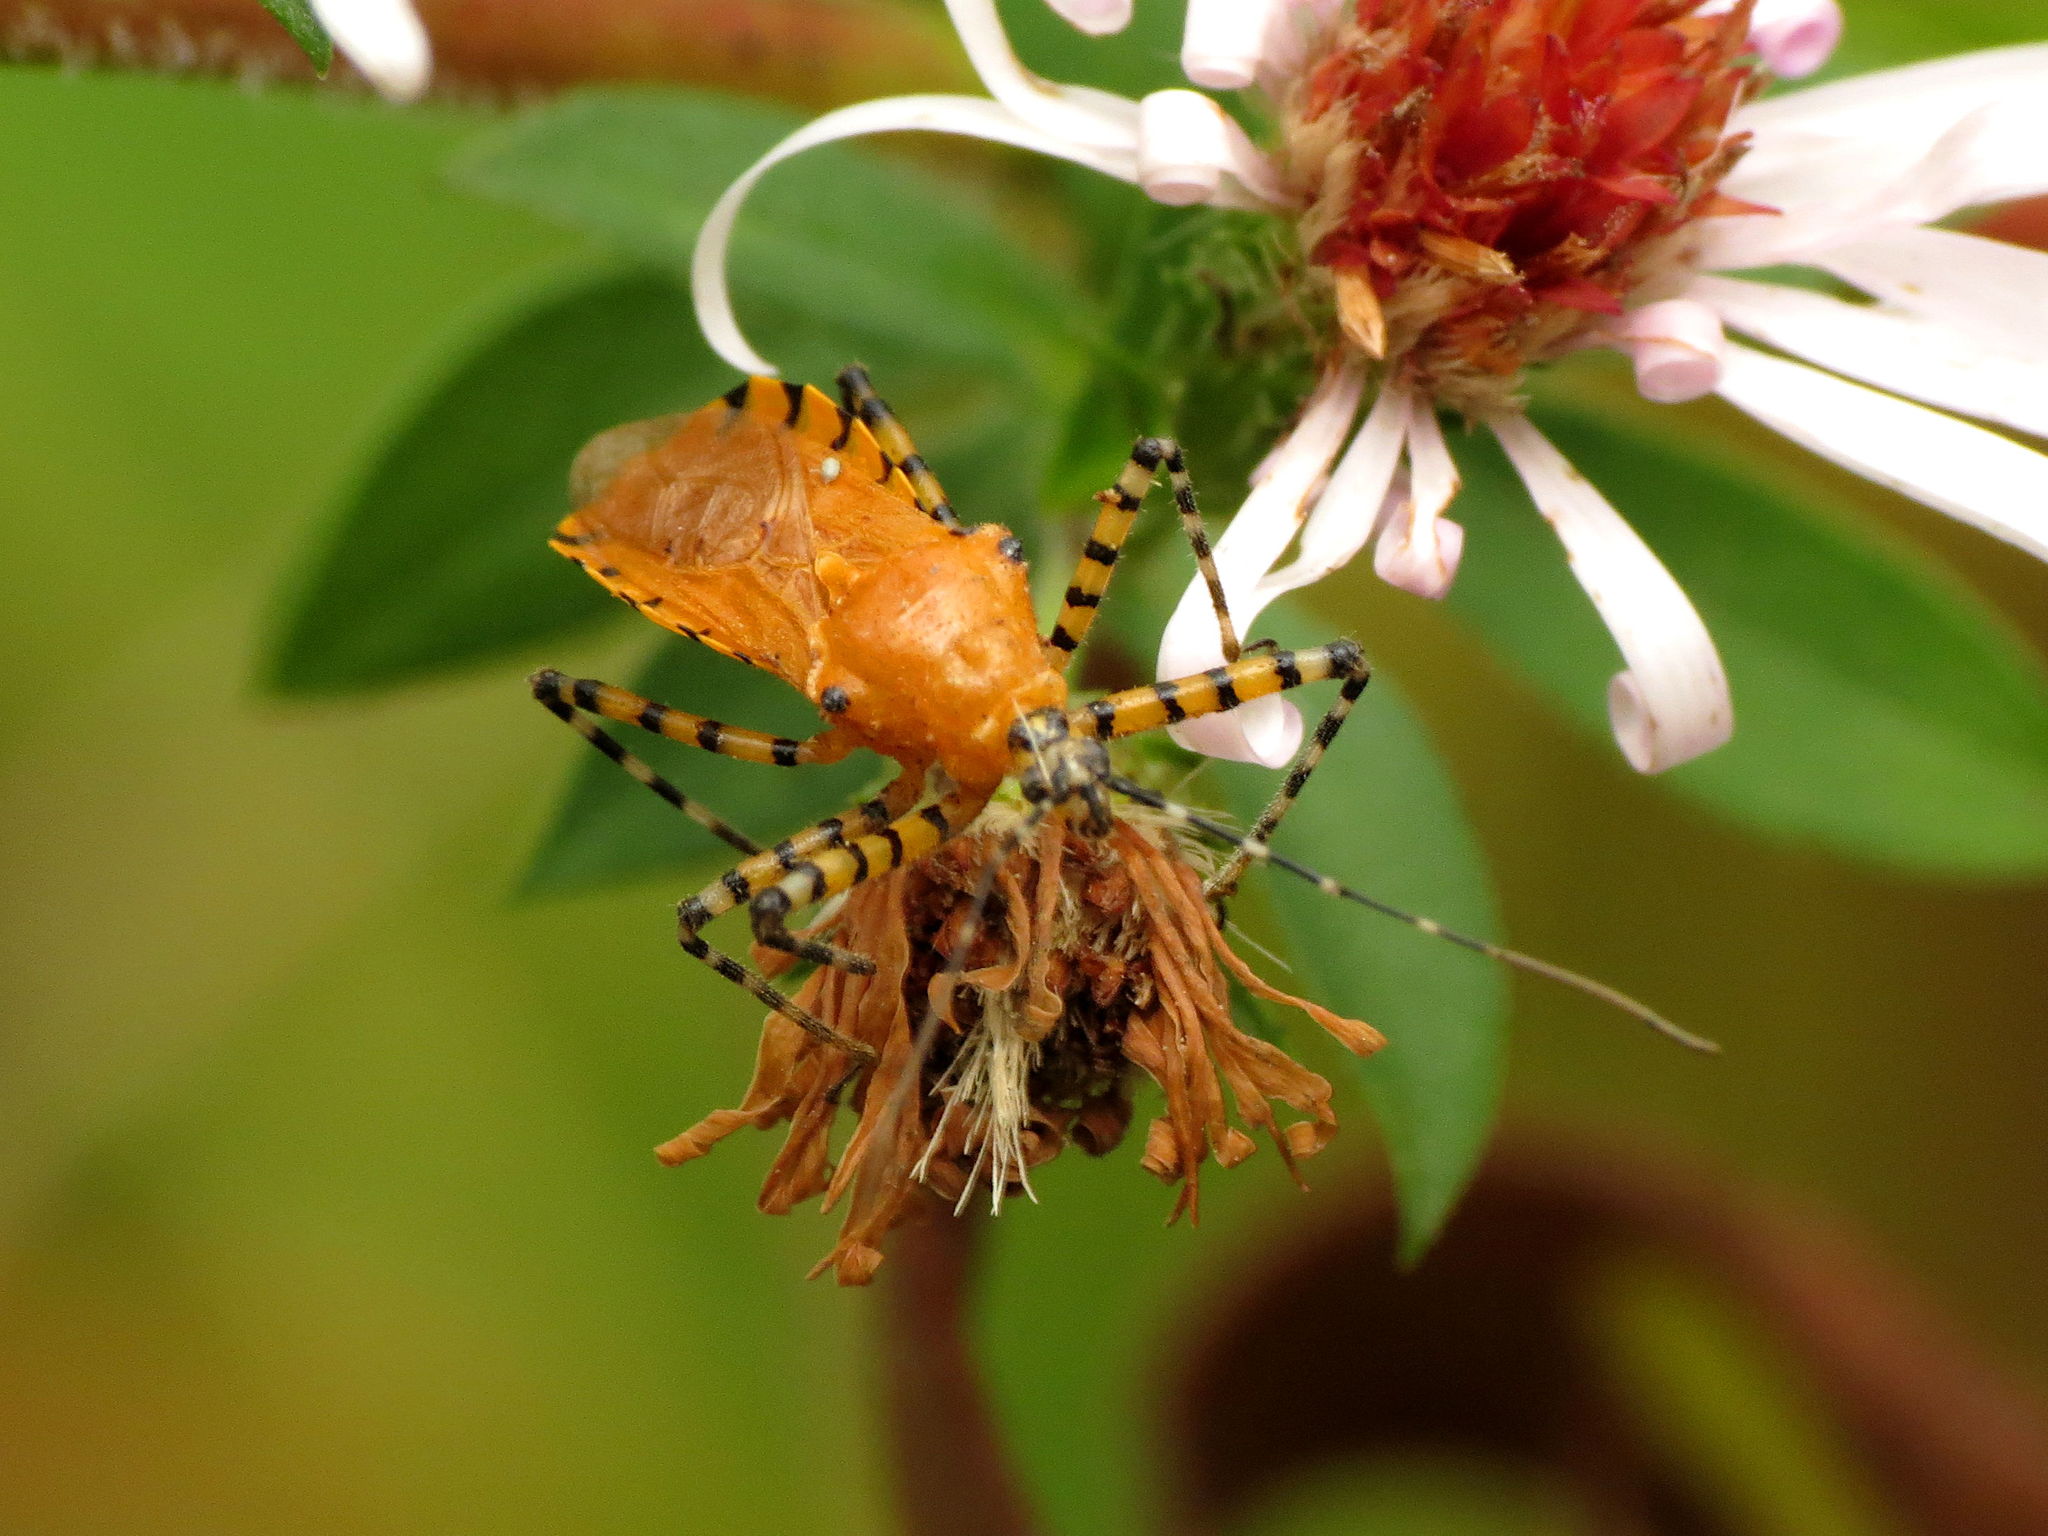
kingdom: Animalia
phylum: Arthropoda
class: Insecta
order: Hemiptera
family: Reduviidae
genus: Pselliopus
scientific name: Pselliopus barberi
